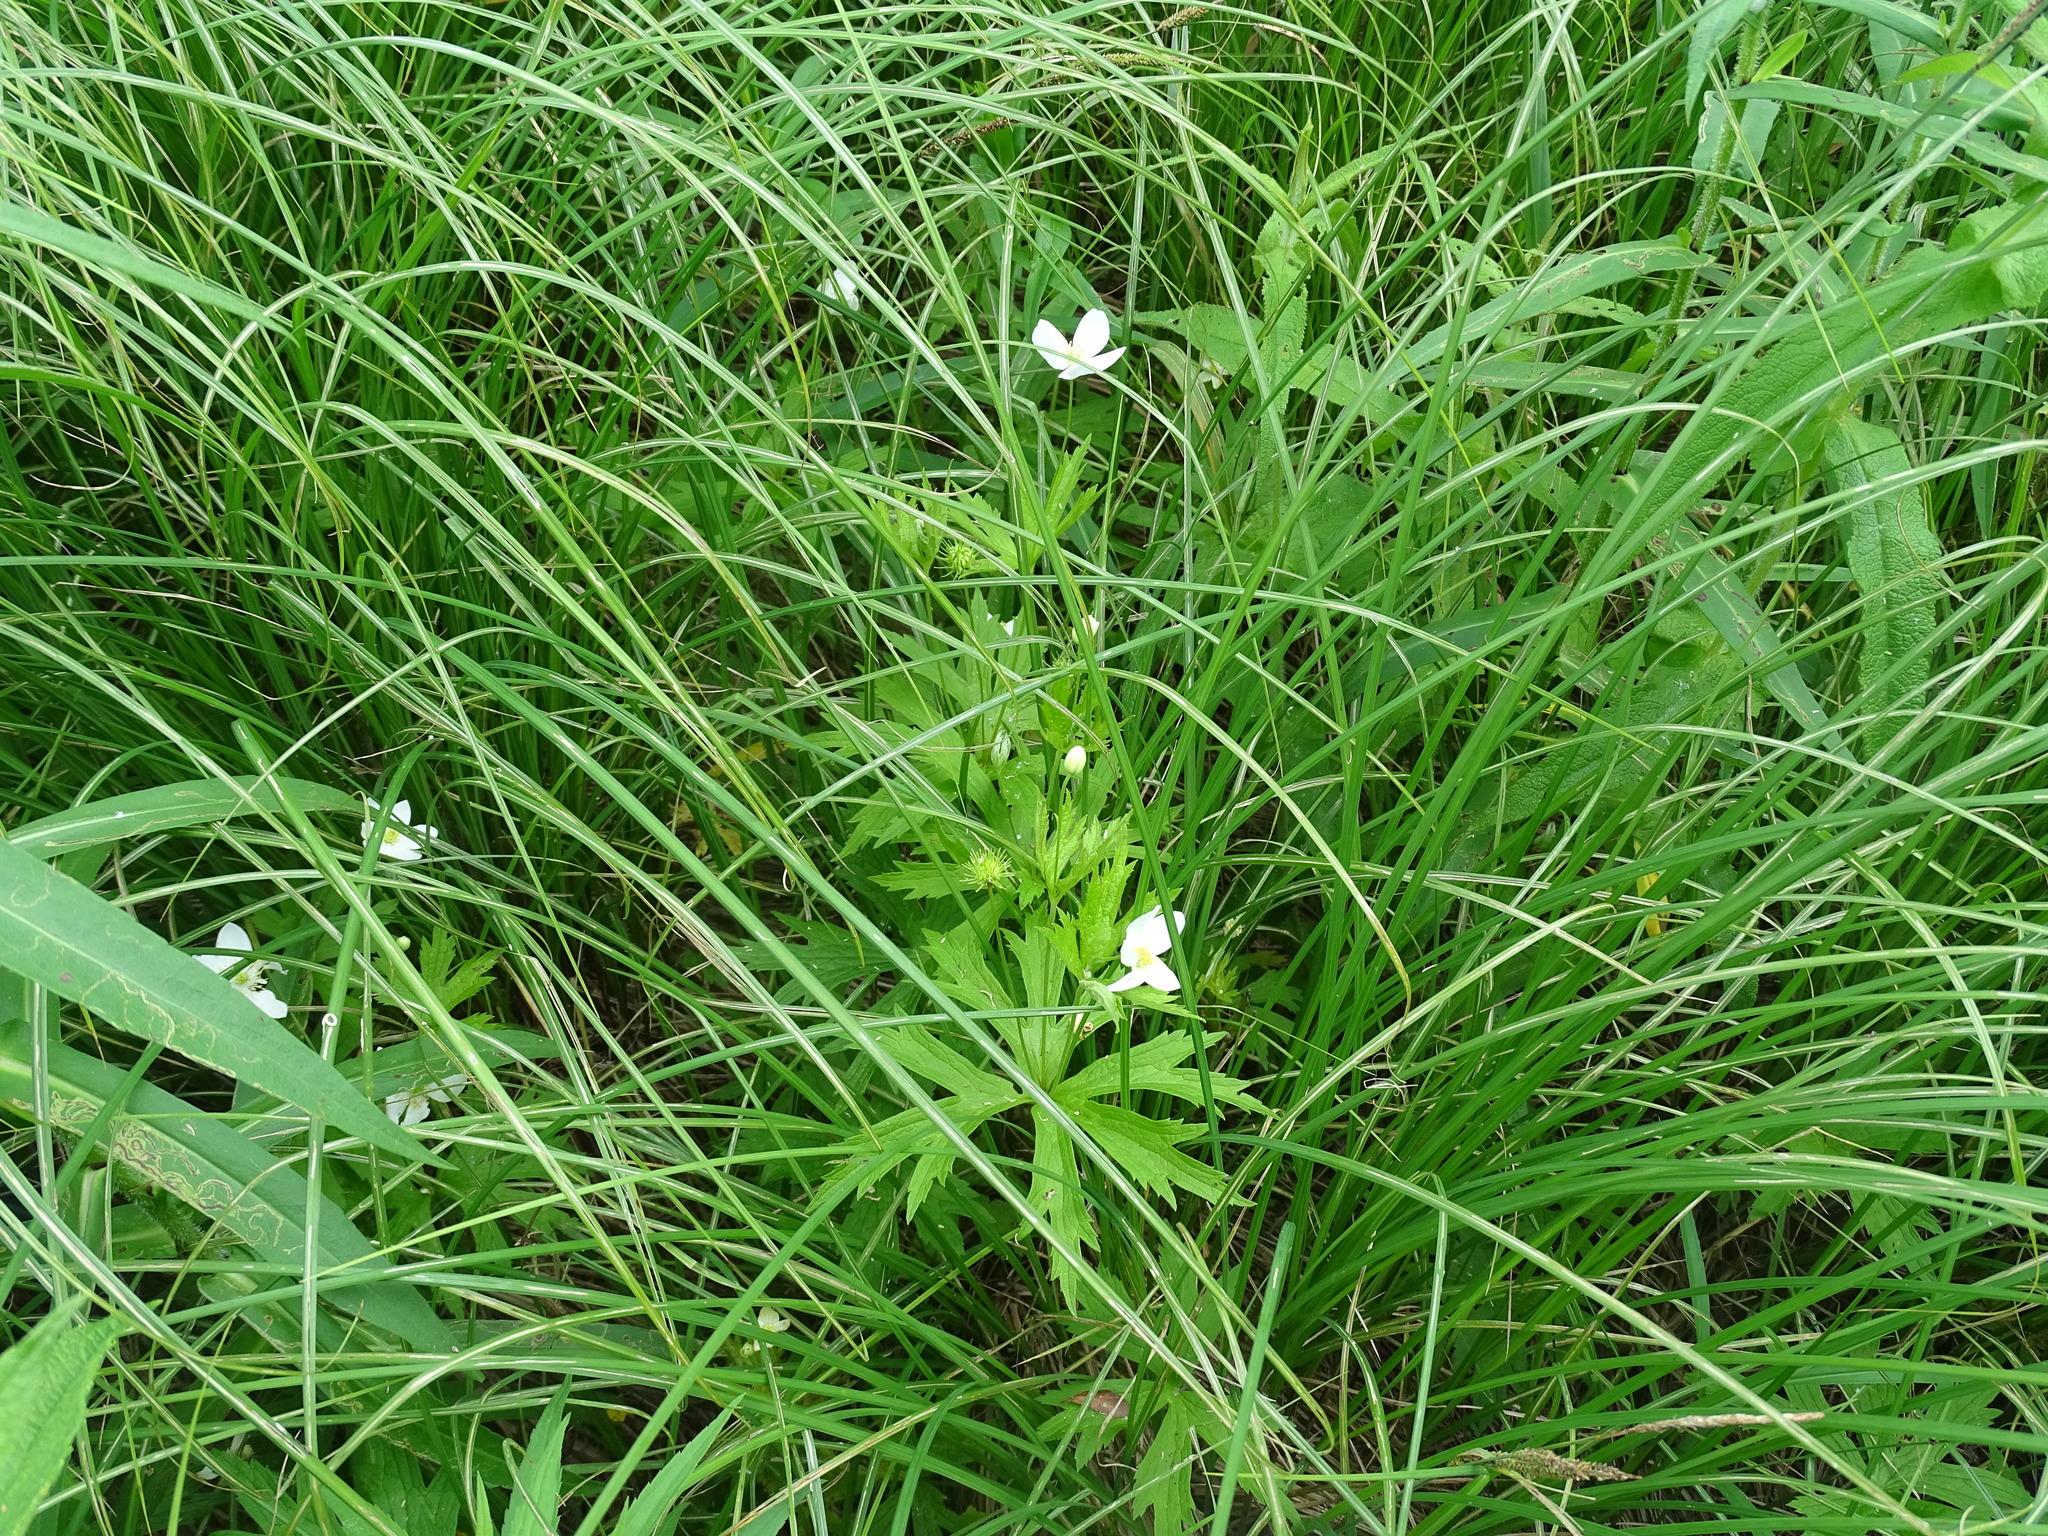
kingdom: Plantae
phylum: Tracheophyta
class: Magnoliopsida
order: Ranunculales
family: Ranunculaceae
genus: Anemonastrum
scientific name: Anemonastrum canadense
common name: Canada anemone
